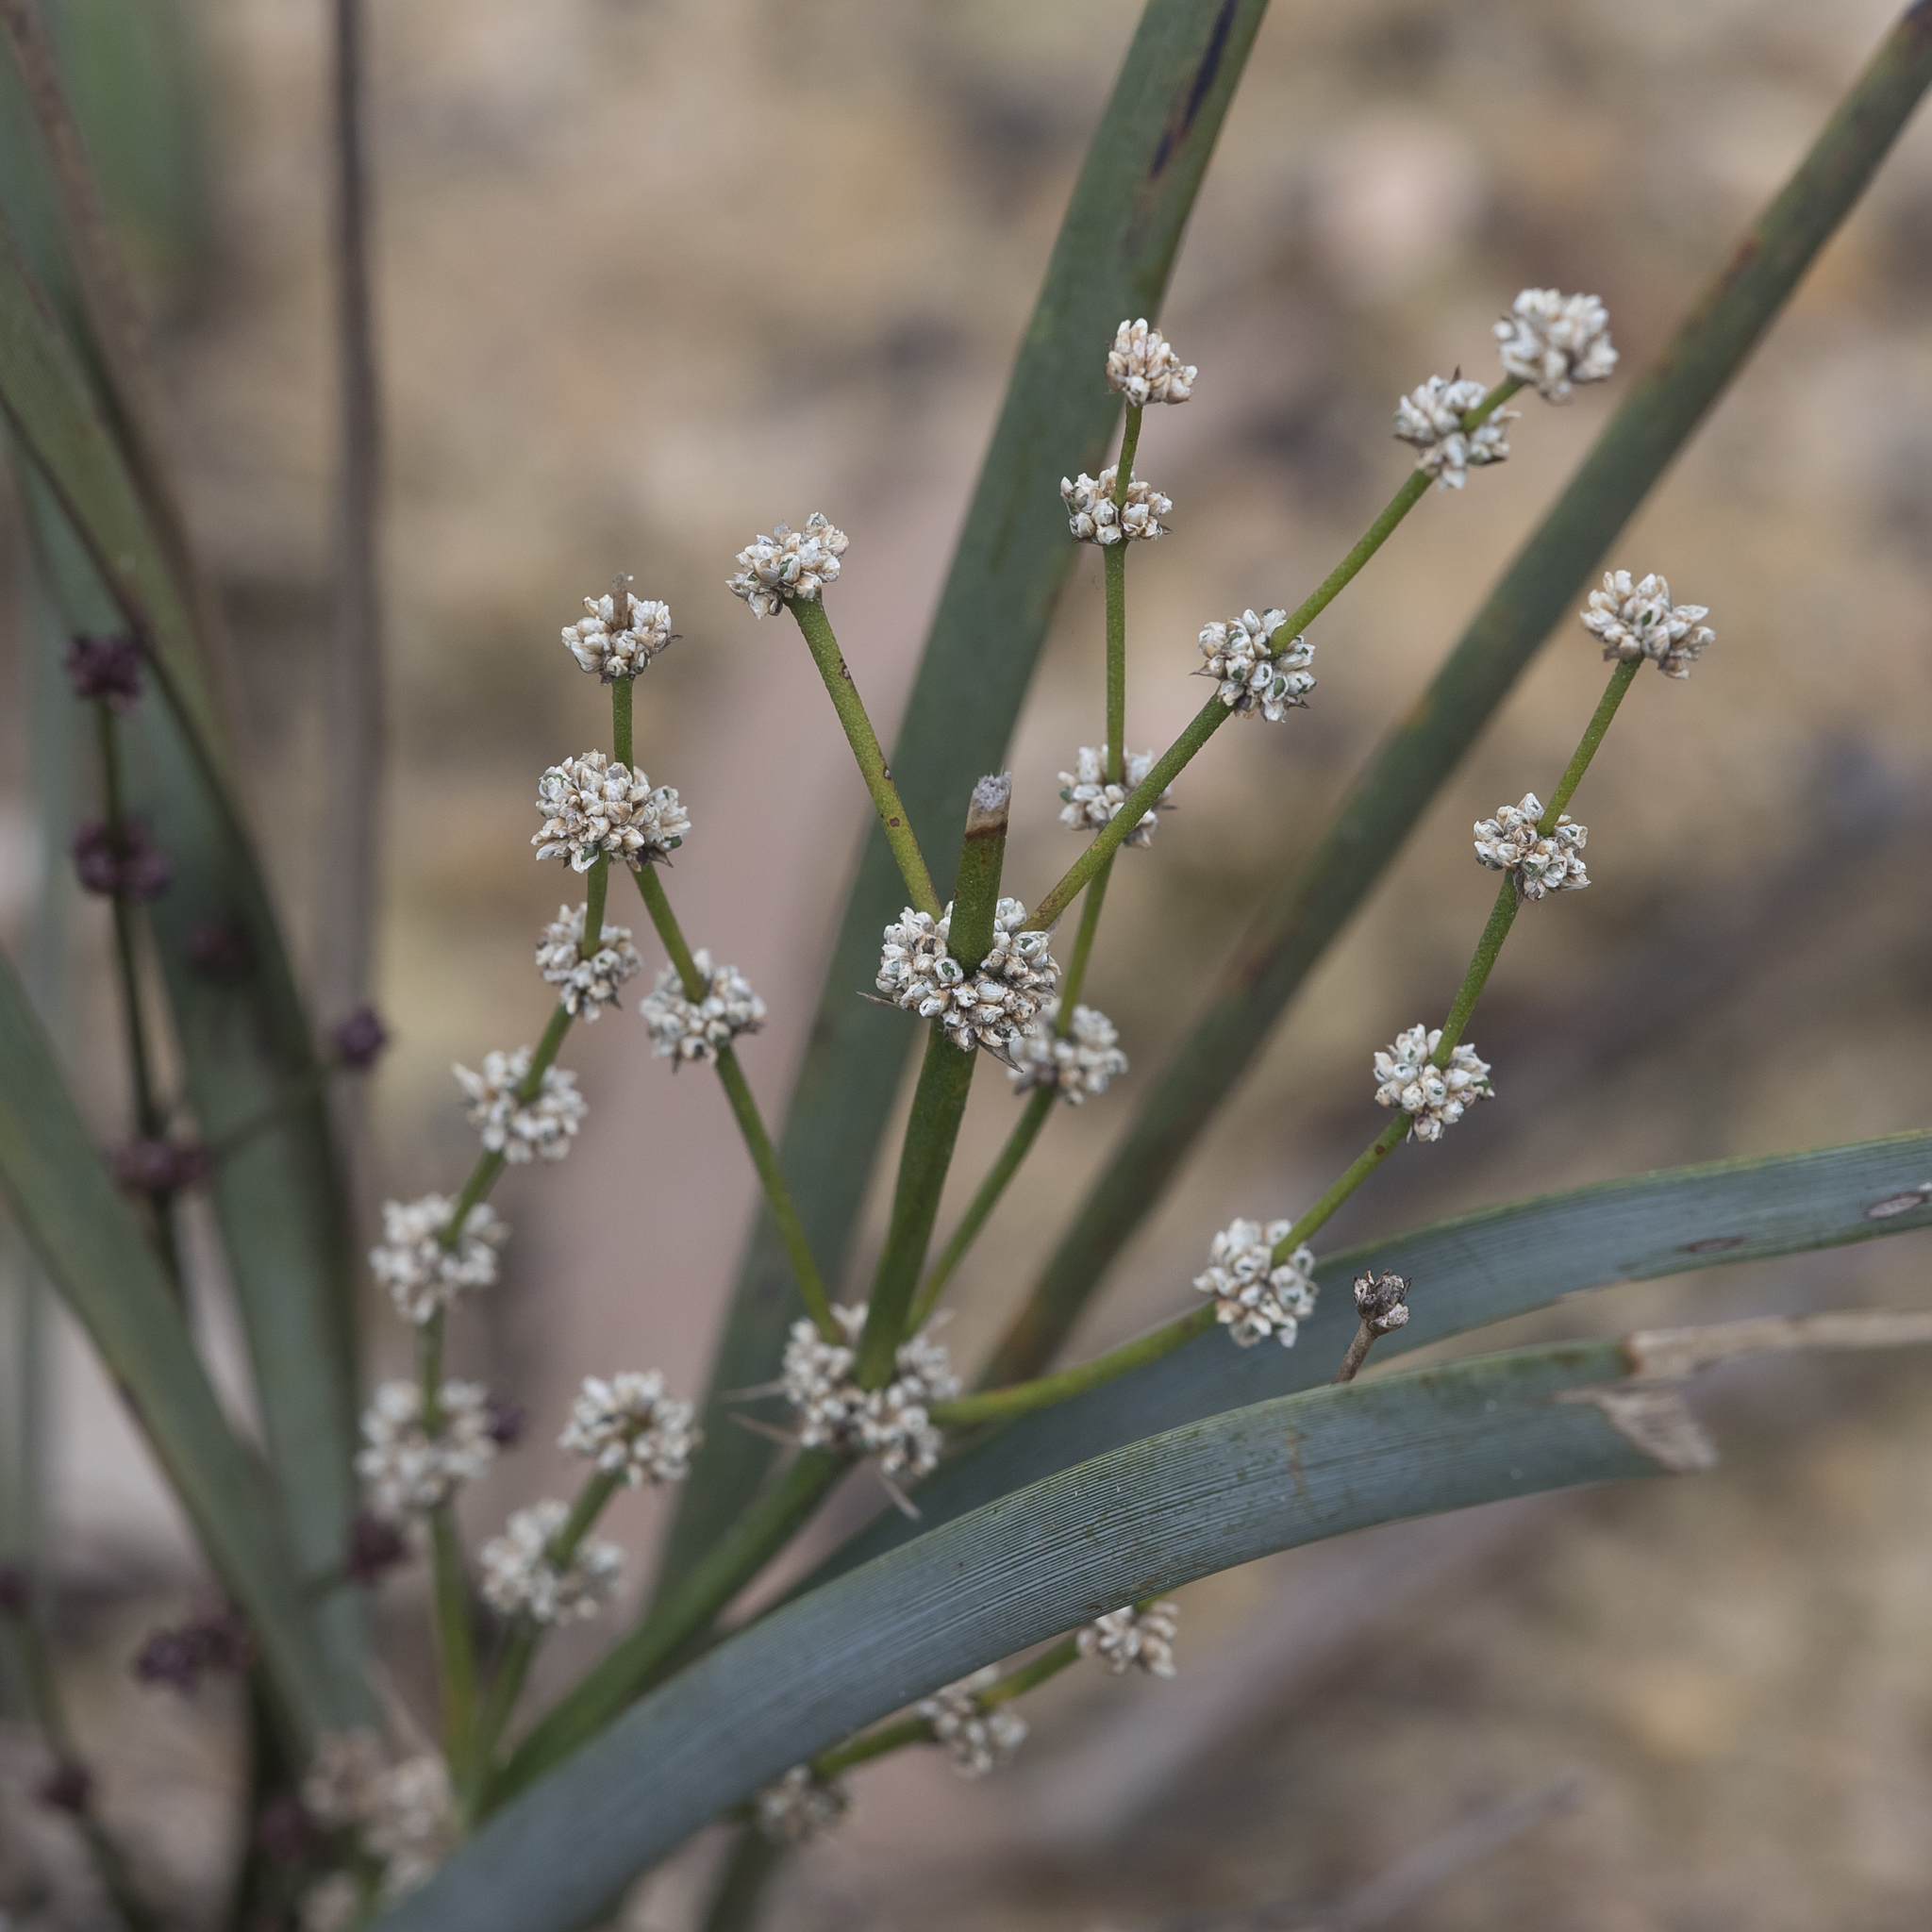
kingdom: Plantae
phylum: Tracheophyta
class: Liliopsida
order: Asparagales
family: Asparagaceae
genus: Lomandra
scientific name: Lomandra multiflora
